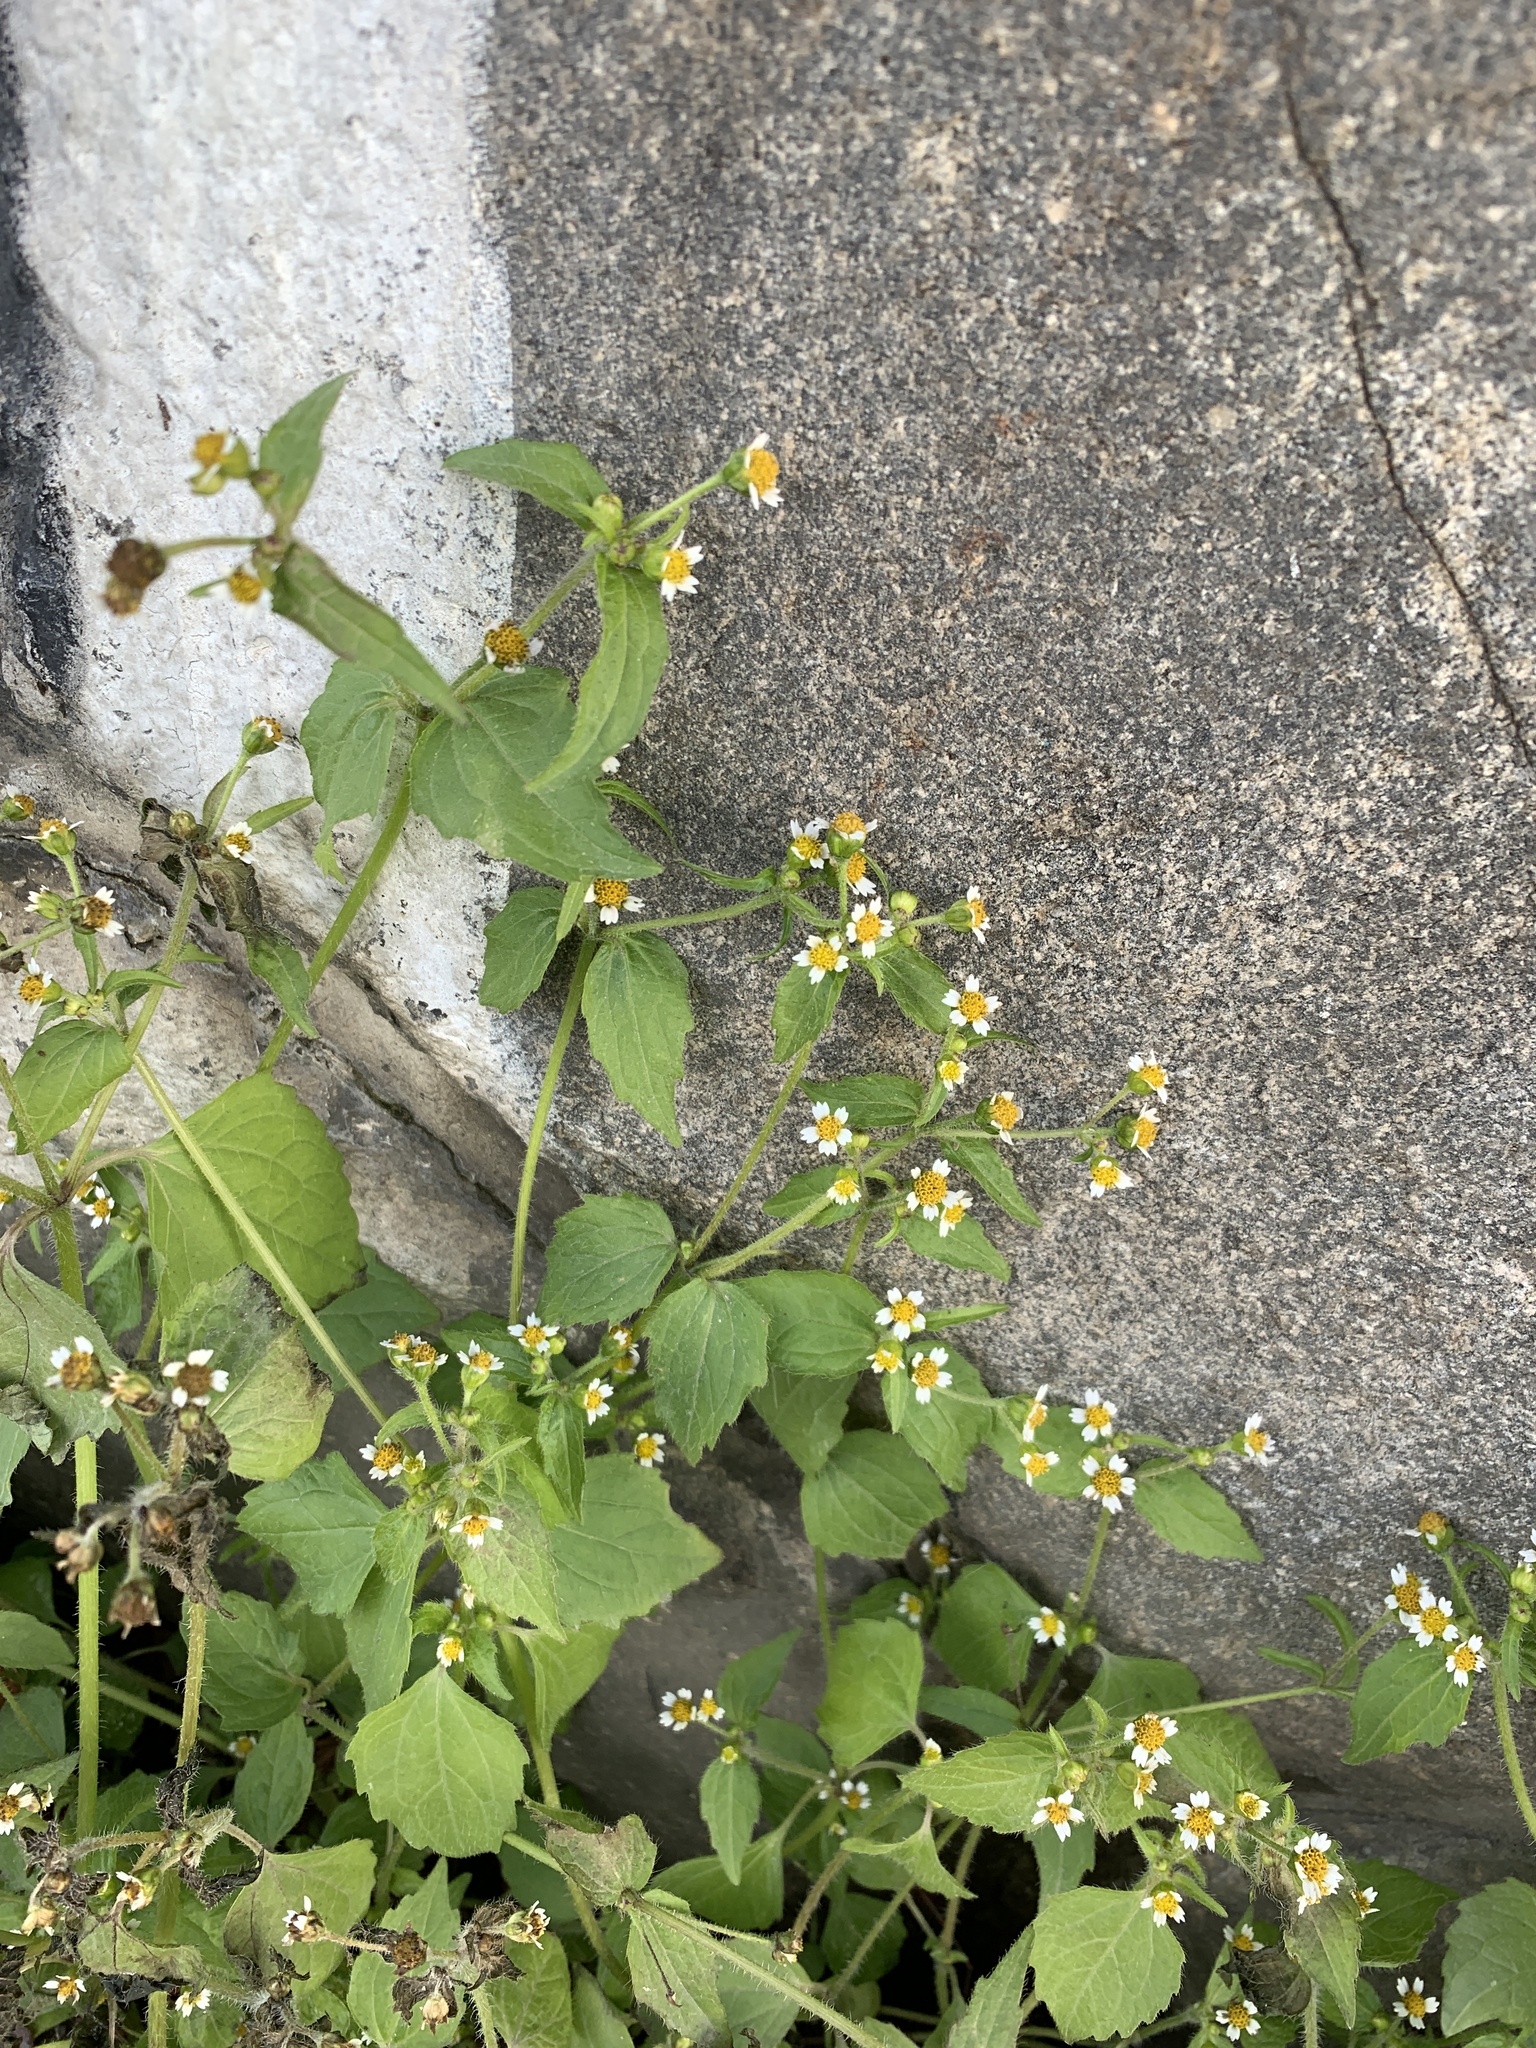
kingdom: Plantae
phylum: Tracheophyta
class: Magnoliopsida
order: Asterales
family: Asteraceae
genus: Galinsoga
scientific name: Galinsoga quadriradiata
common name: Shaggy soldier
